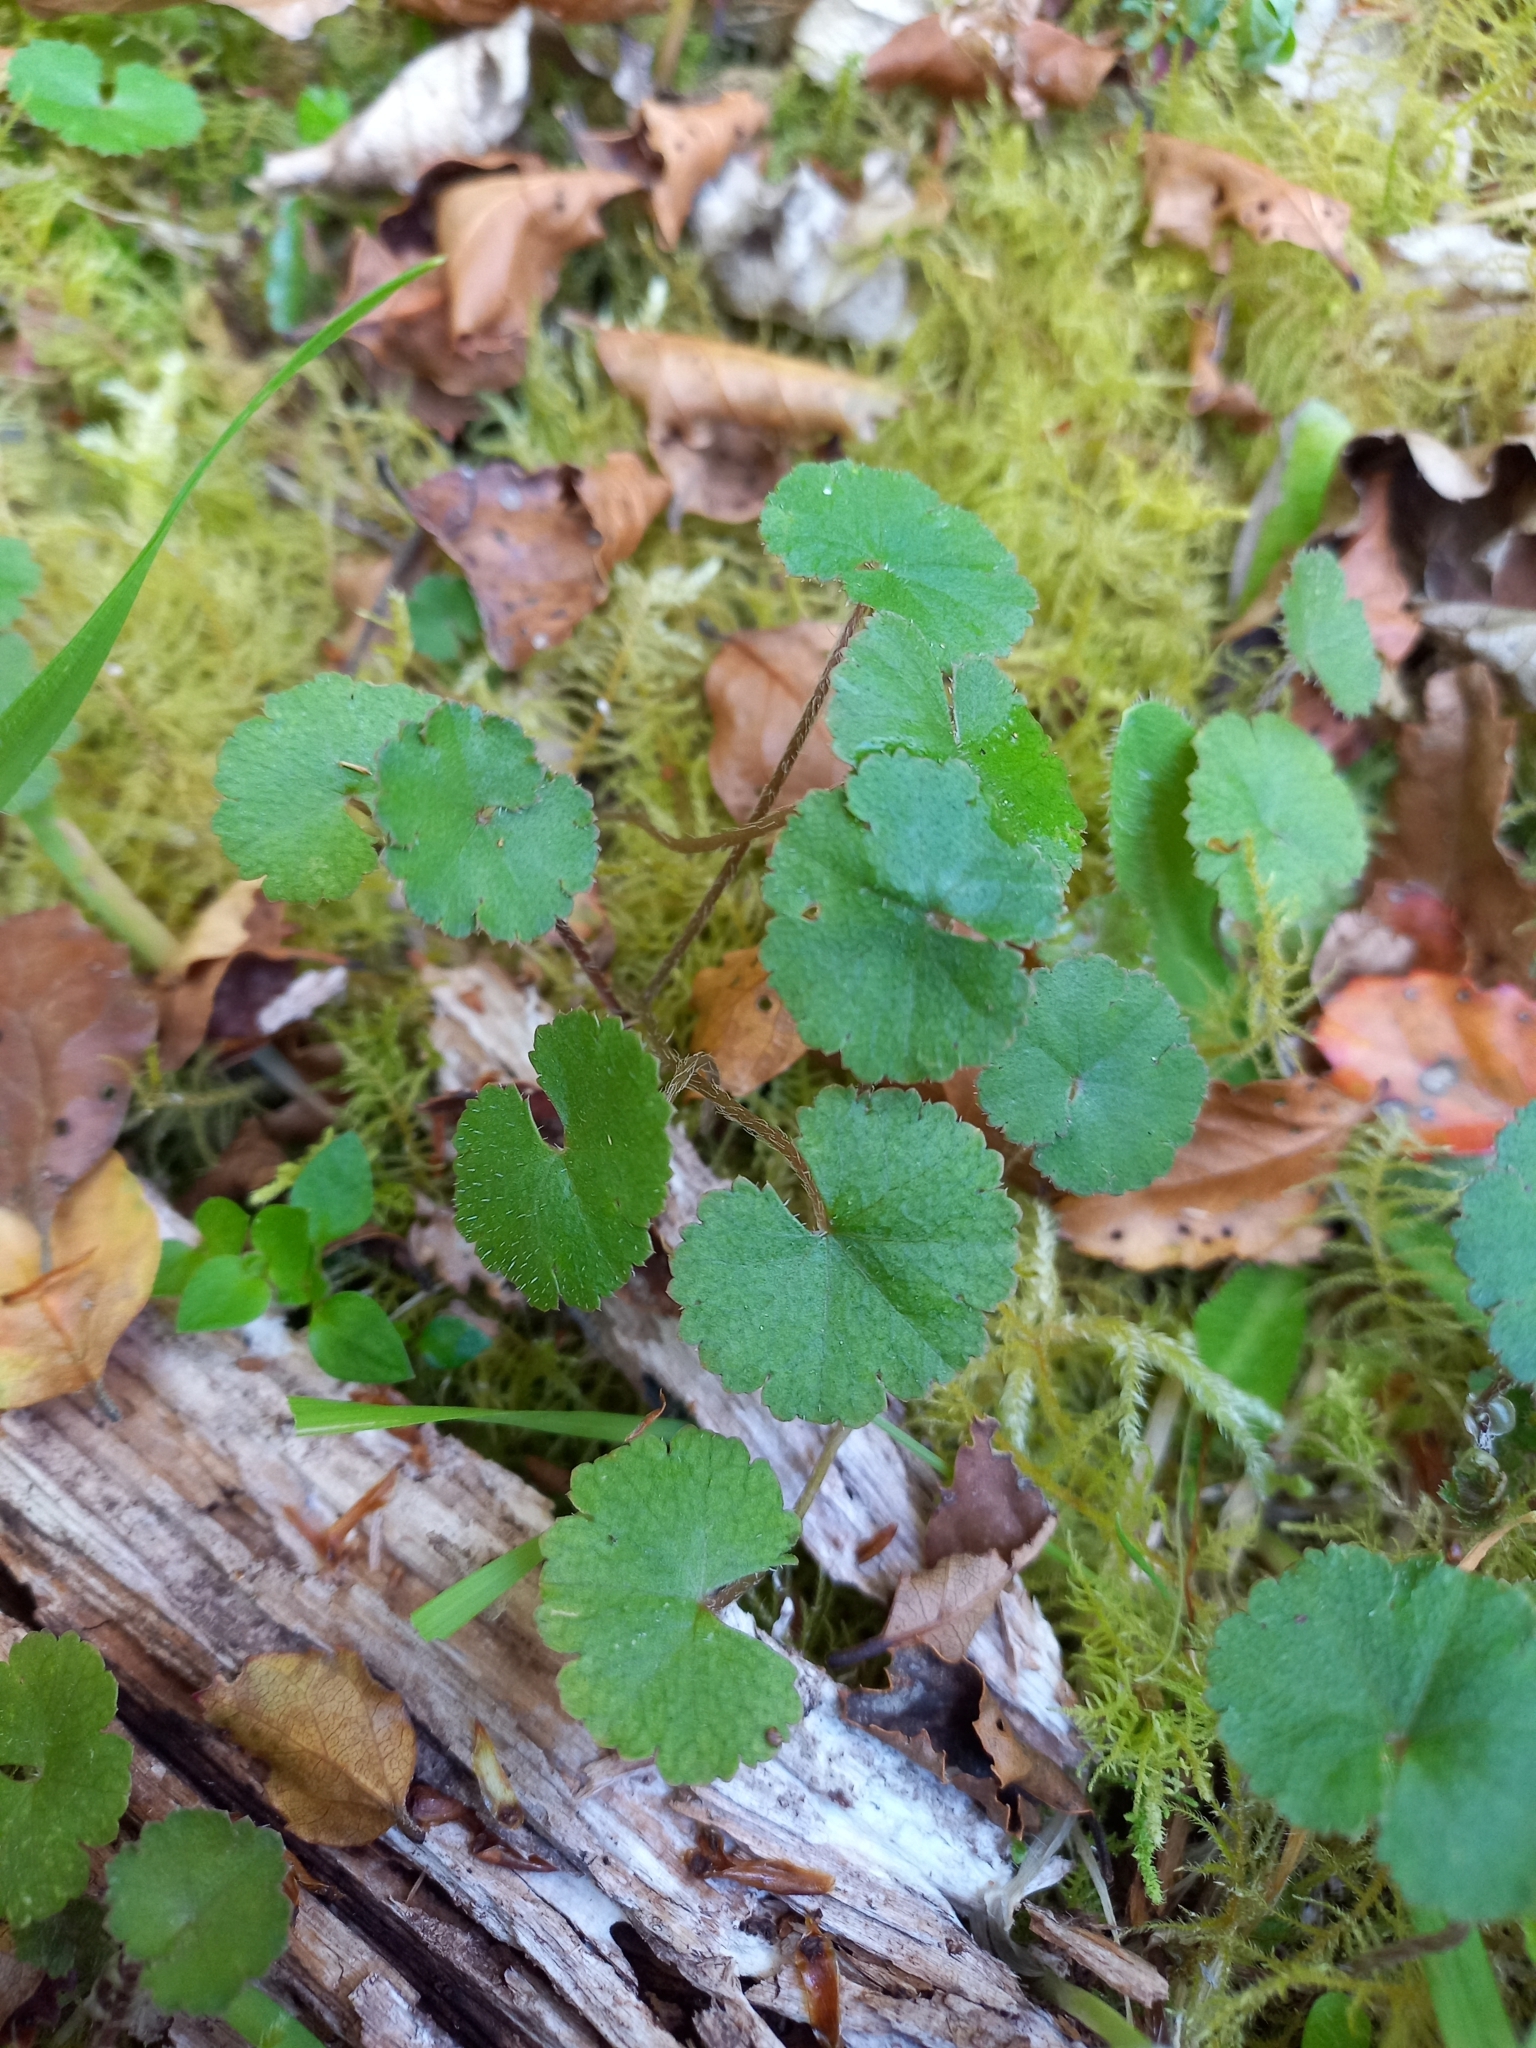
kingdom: Plantae
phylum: Tracheophyta
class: Magnoliopsida
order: Apiales
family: Araliaceae
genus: Hydrocotyle
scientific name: Hydrocotyle novae-zeelandiae
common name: New zealand pennywort
